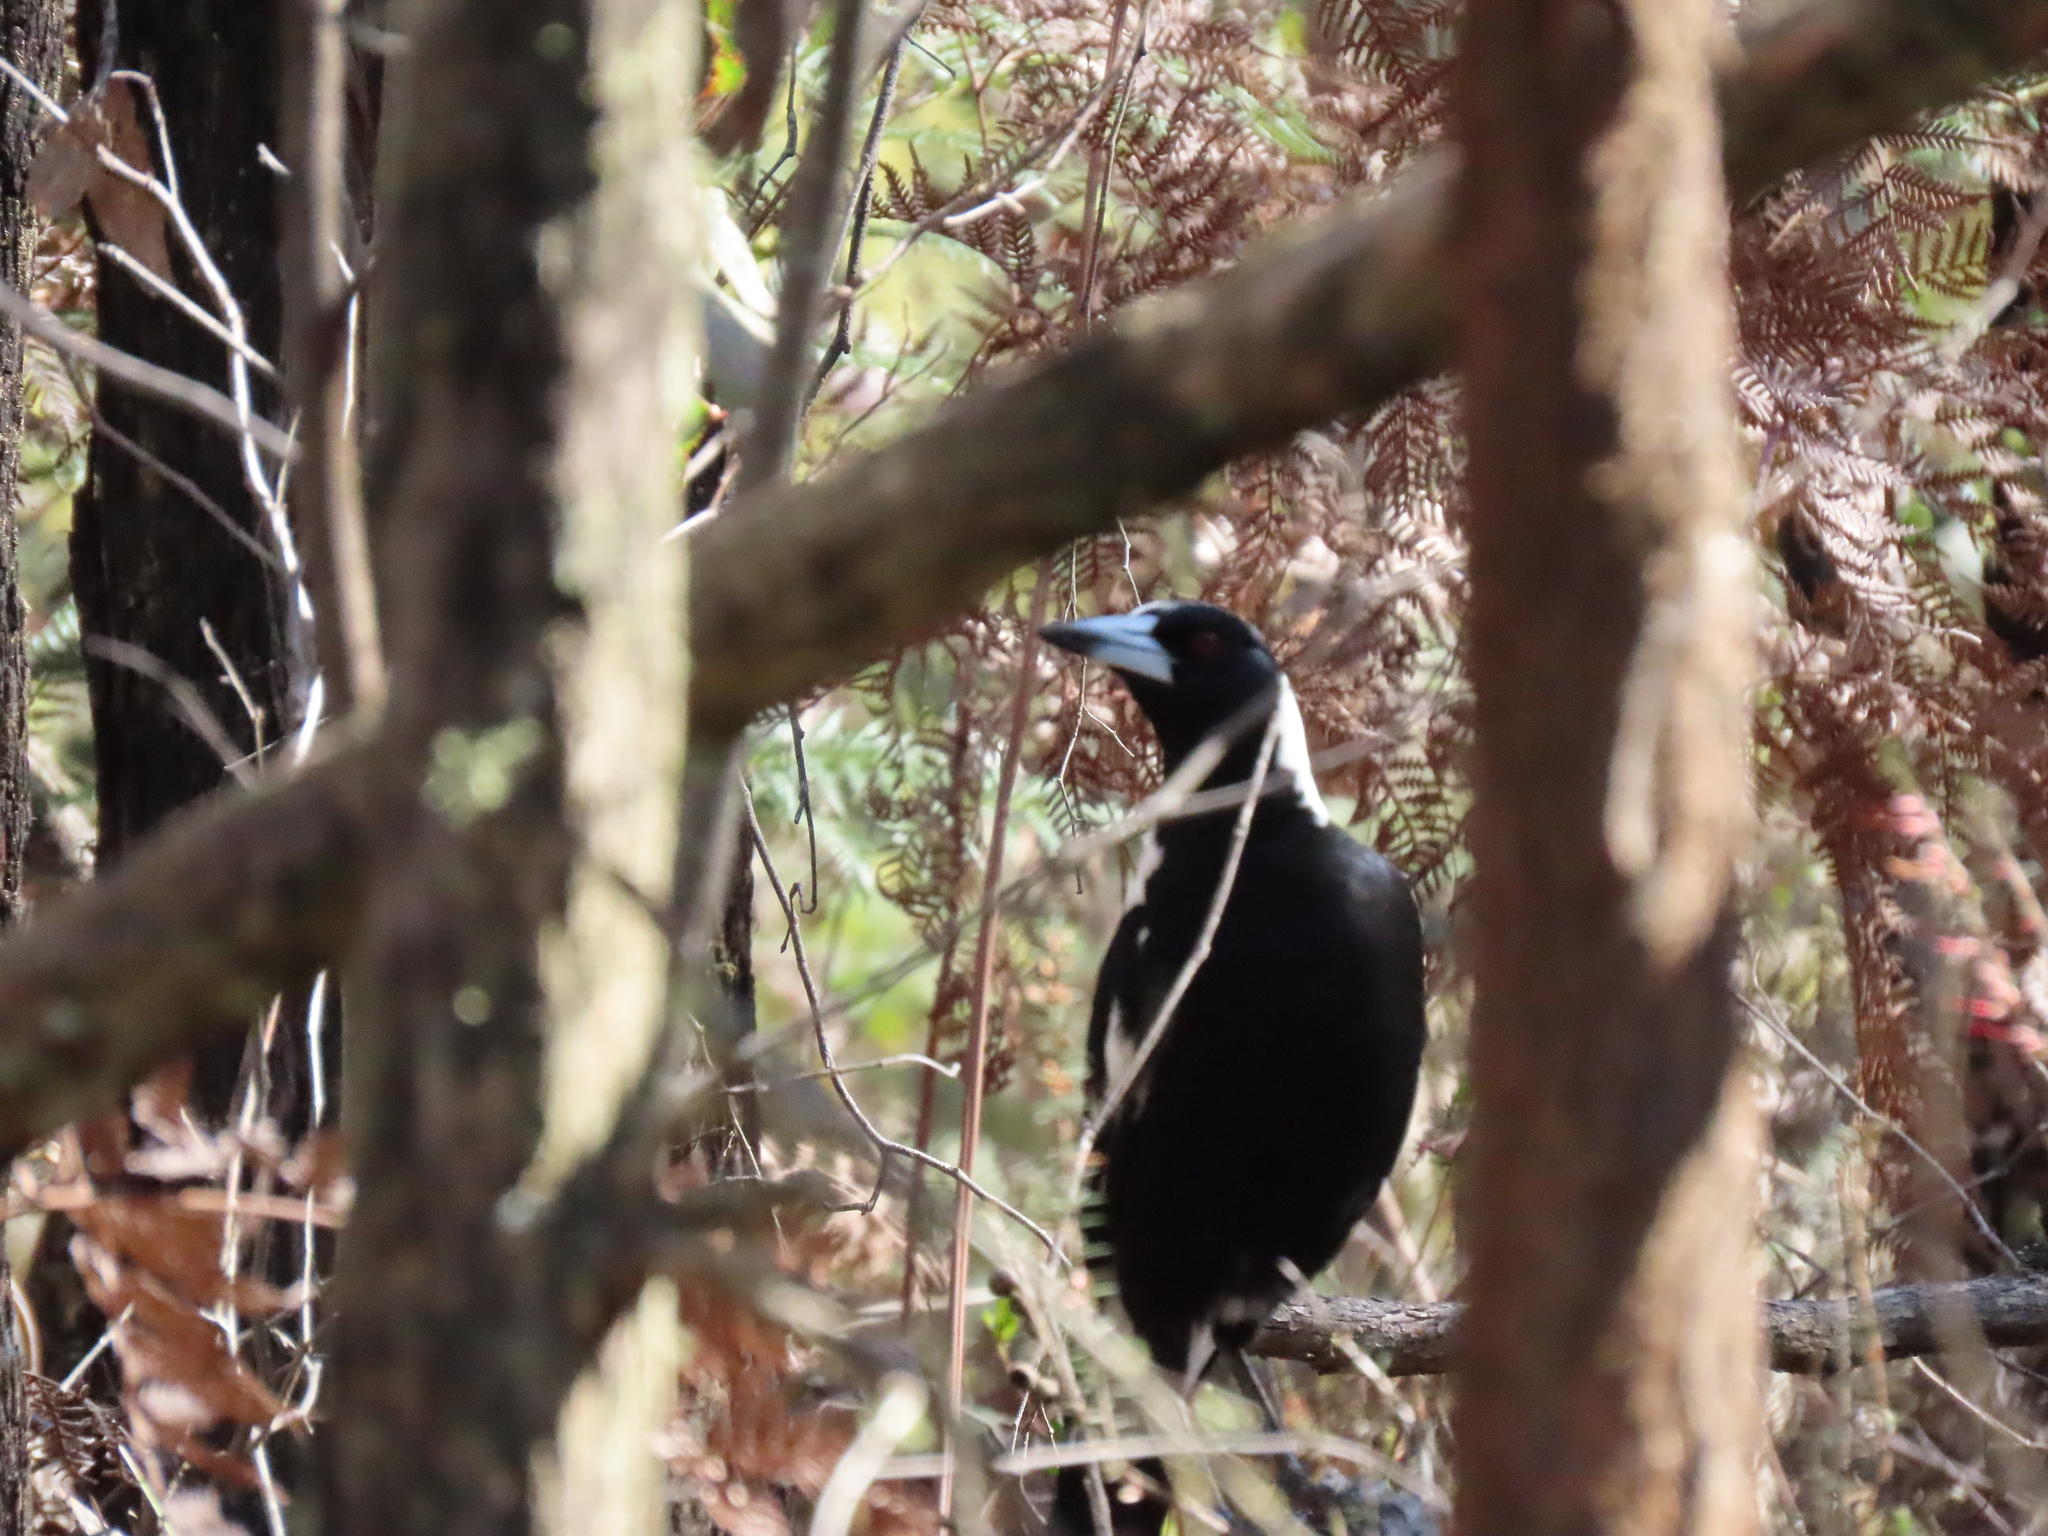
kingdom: Animalia
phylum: Chordata
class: Aves
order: Passeriformes
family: Cracticidae
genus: Gymnorhina
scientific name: Gymnorhina tibicen
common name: Australian magpie
